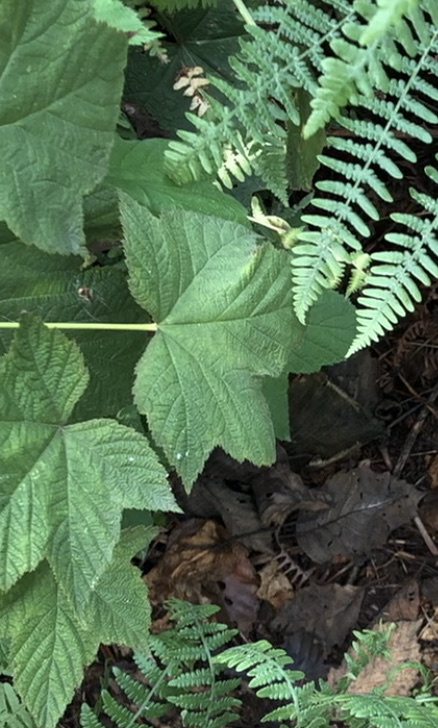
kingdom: Plantae
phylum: Tracheophyta
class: Magnoliopsida
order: Rosales
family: Rosaceae
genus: Rubus
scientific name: Rubus parviflorus
